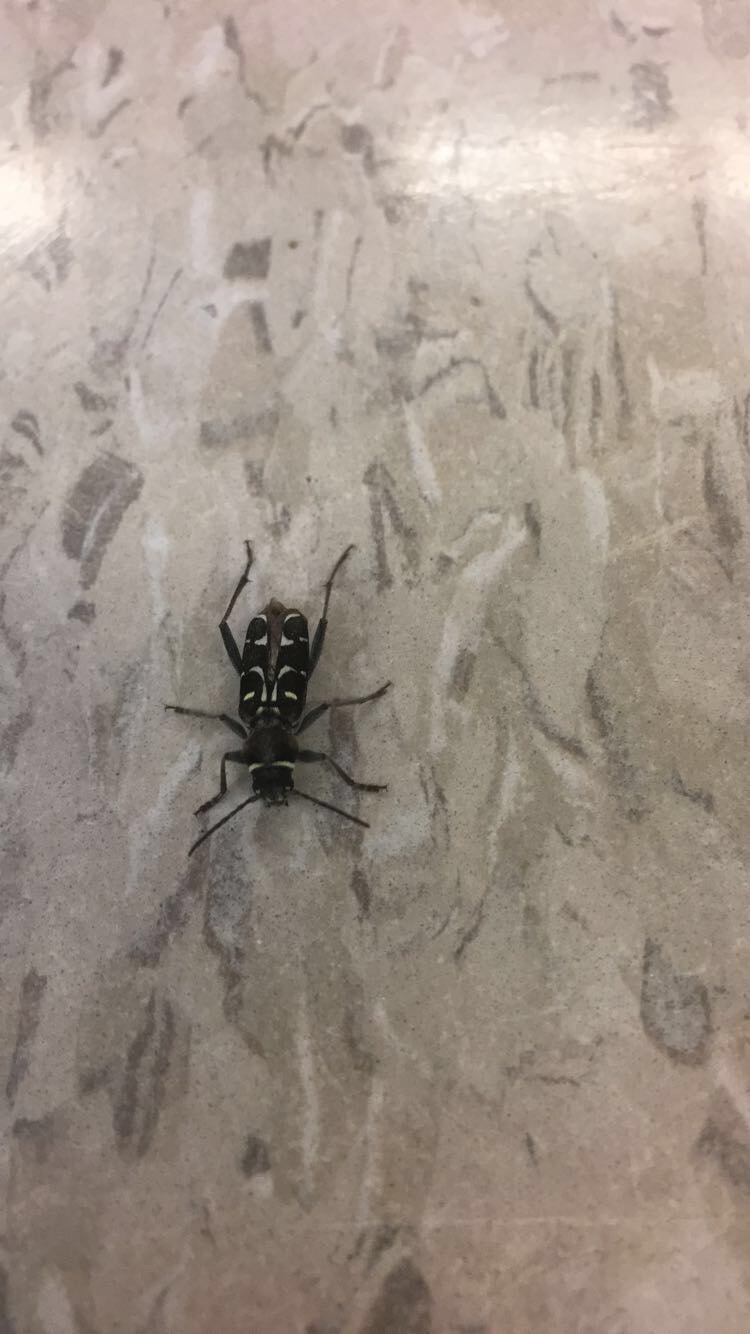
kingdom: Animalia
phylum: Arthropoda
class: Insecta
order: Coleoptera
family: Cerambycidae
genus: Xylotrechus
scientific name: Xylotrechus undulatus
